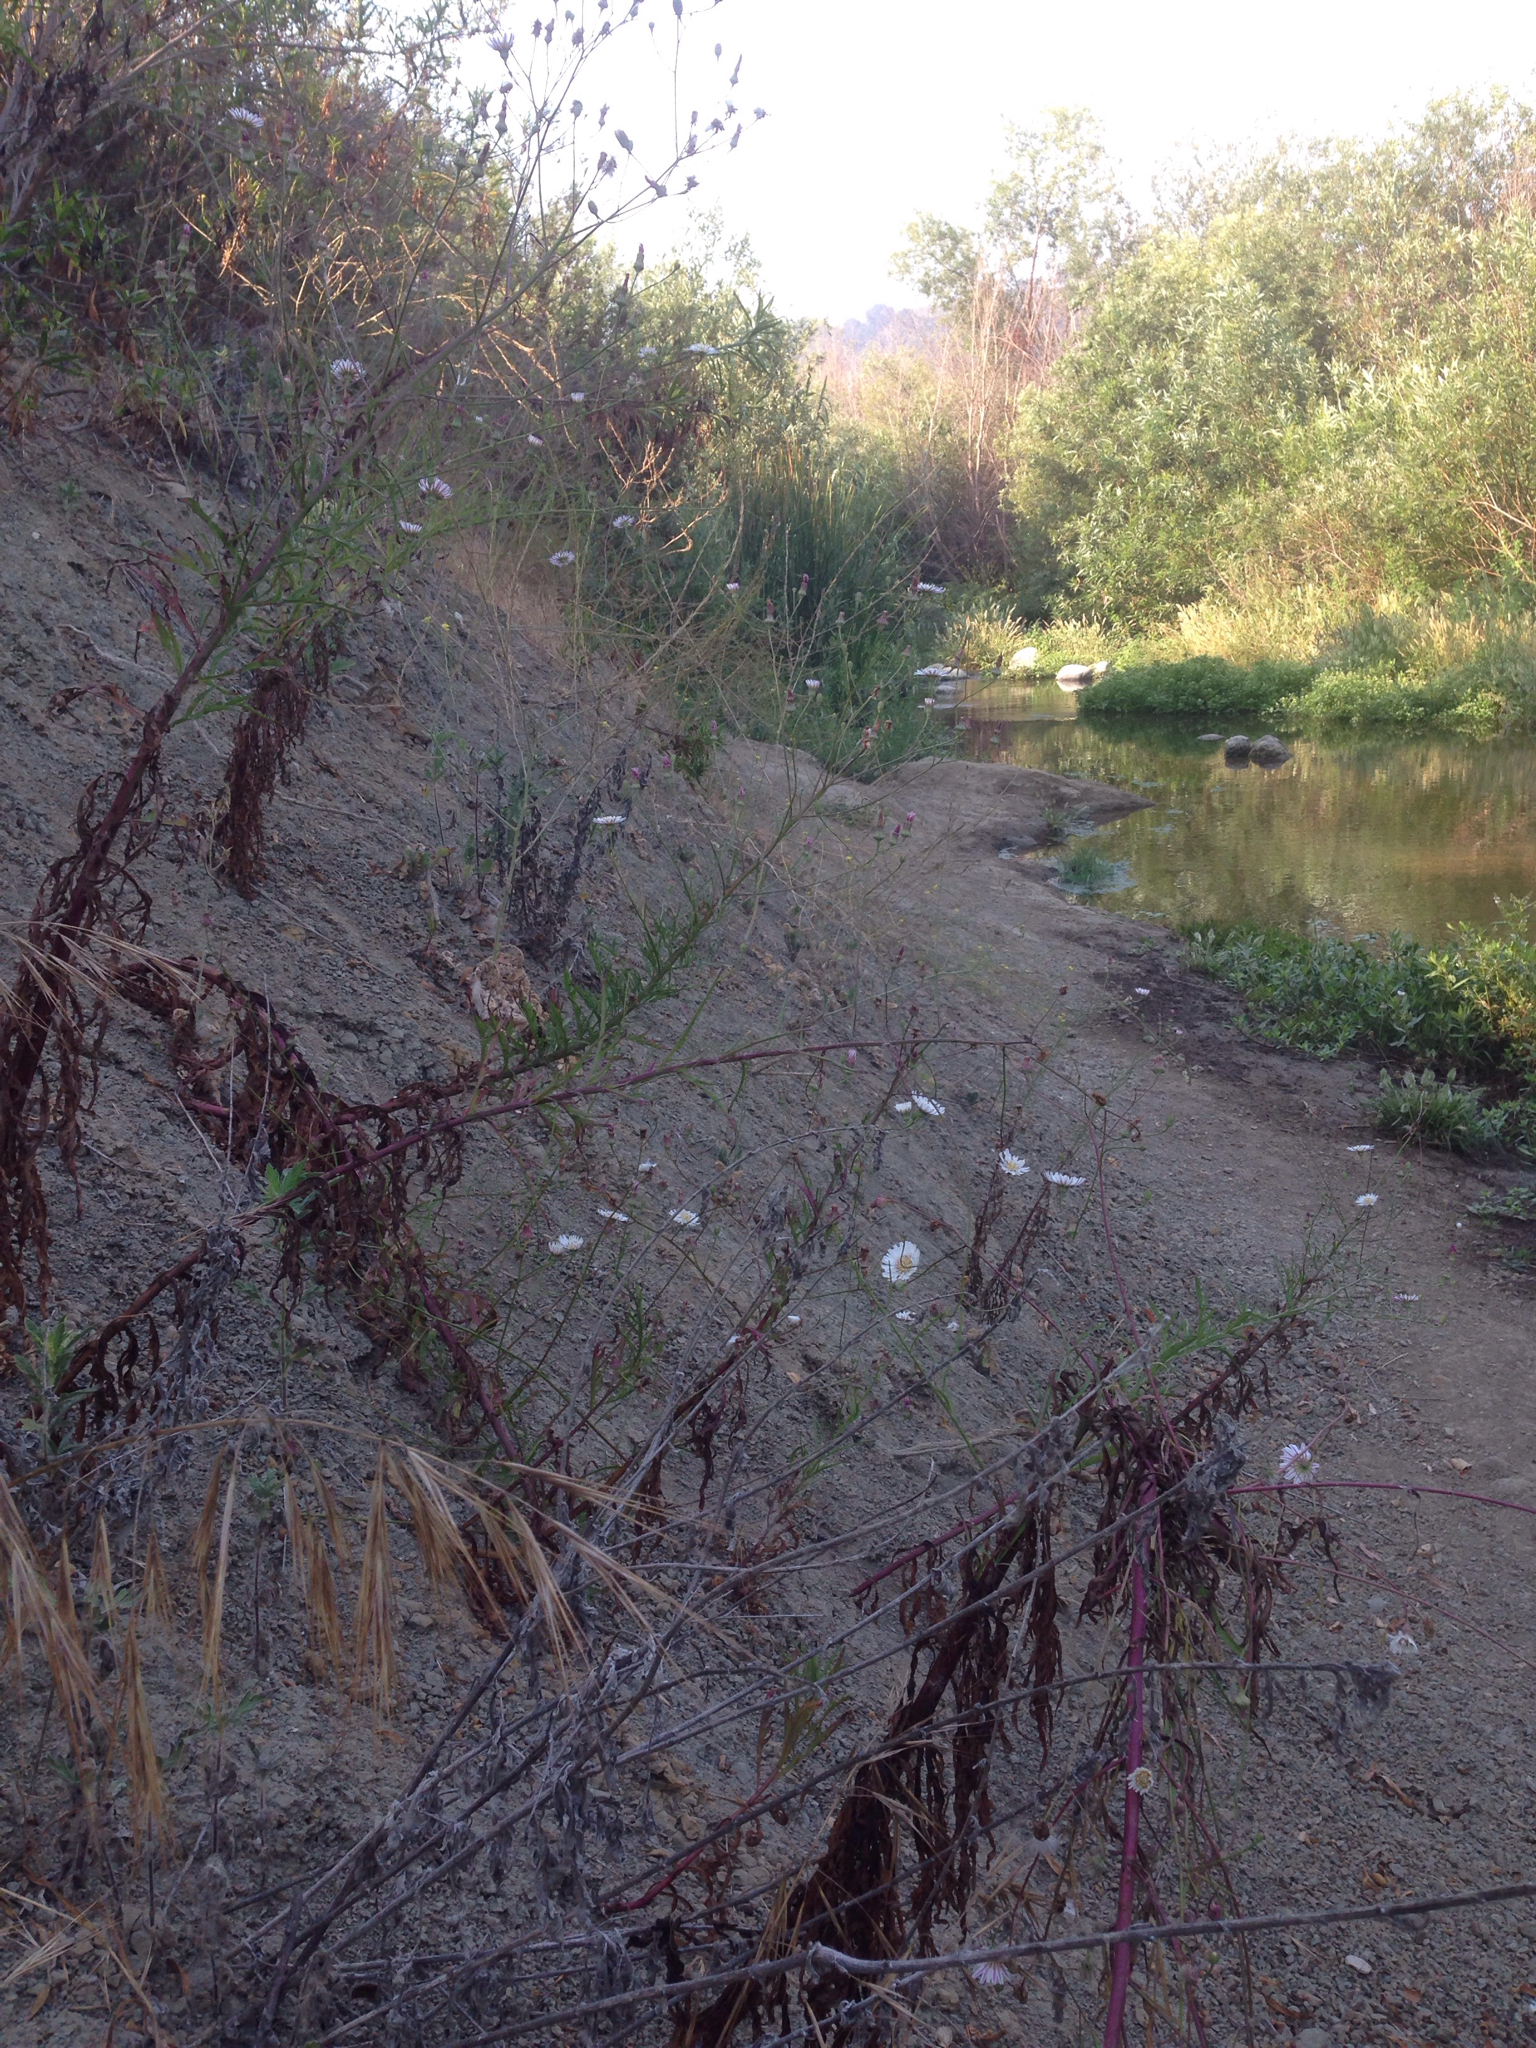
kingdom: Plantae
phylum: Tracheophyta
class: Magnoliopsida
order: Asterales
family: Asteraceae
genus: Malacothrix
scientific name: Malacothrix saxatilis
